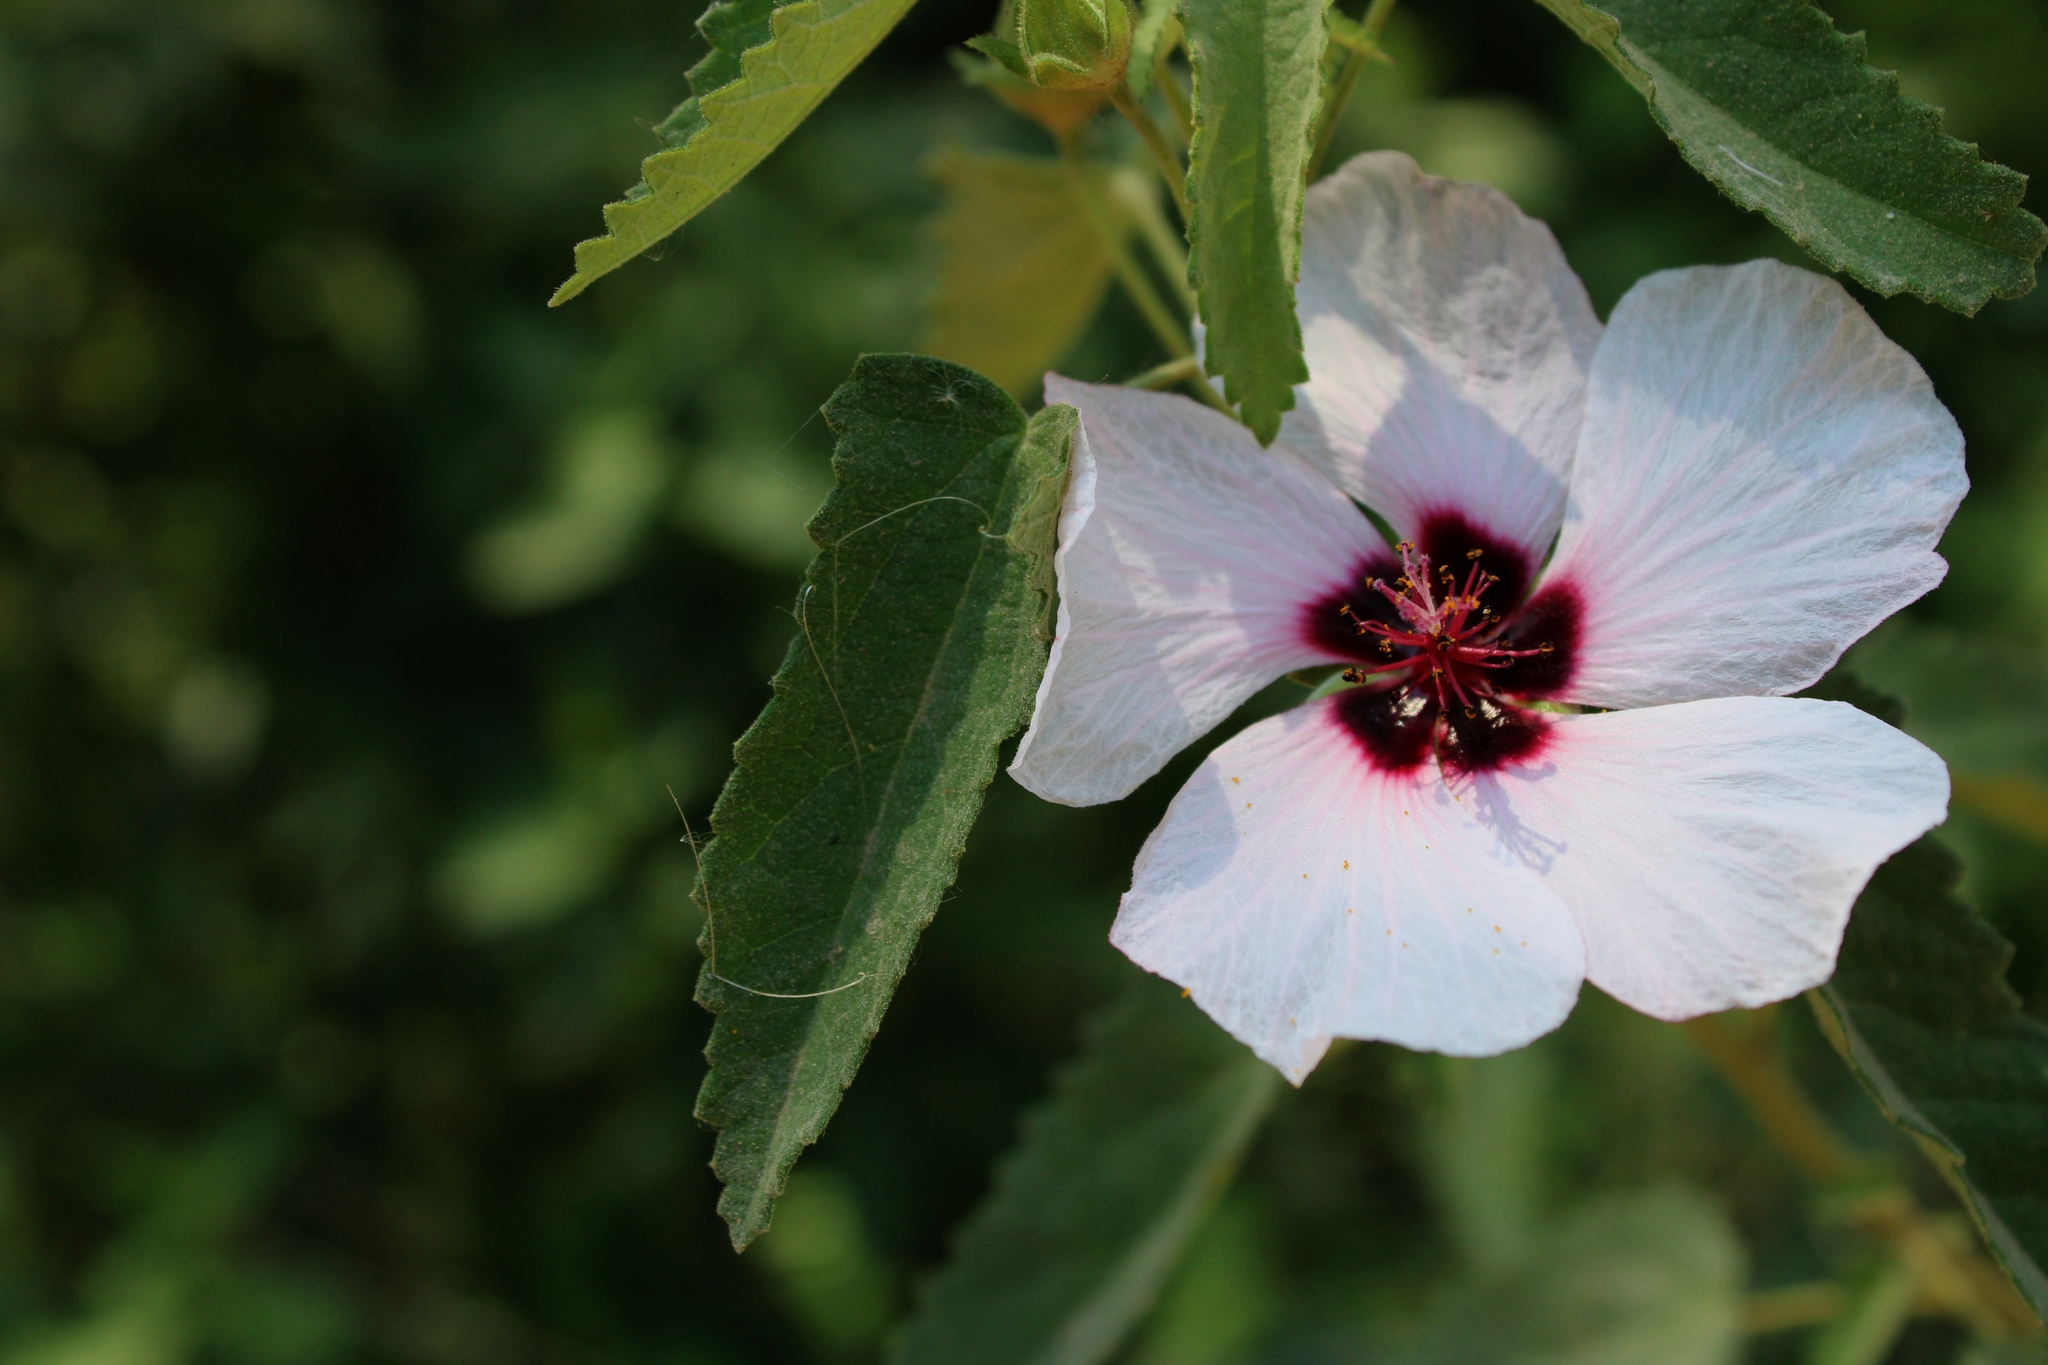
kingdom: Plantae
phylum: Tracheophyta
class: Magnoliopsida
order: Malvales
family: Malvaceae
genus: Pavonia
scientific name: Pavonia xanthogloea
